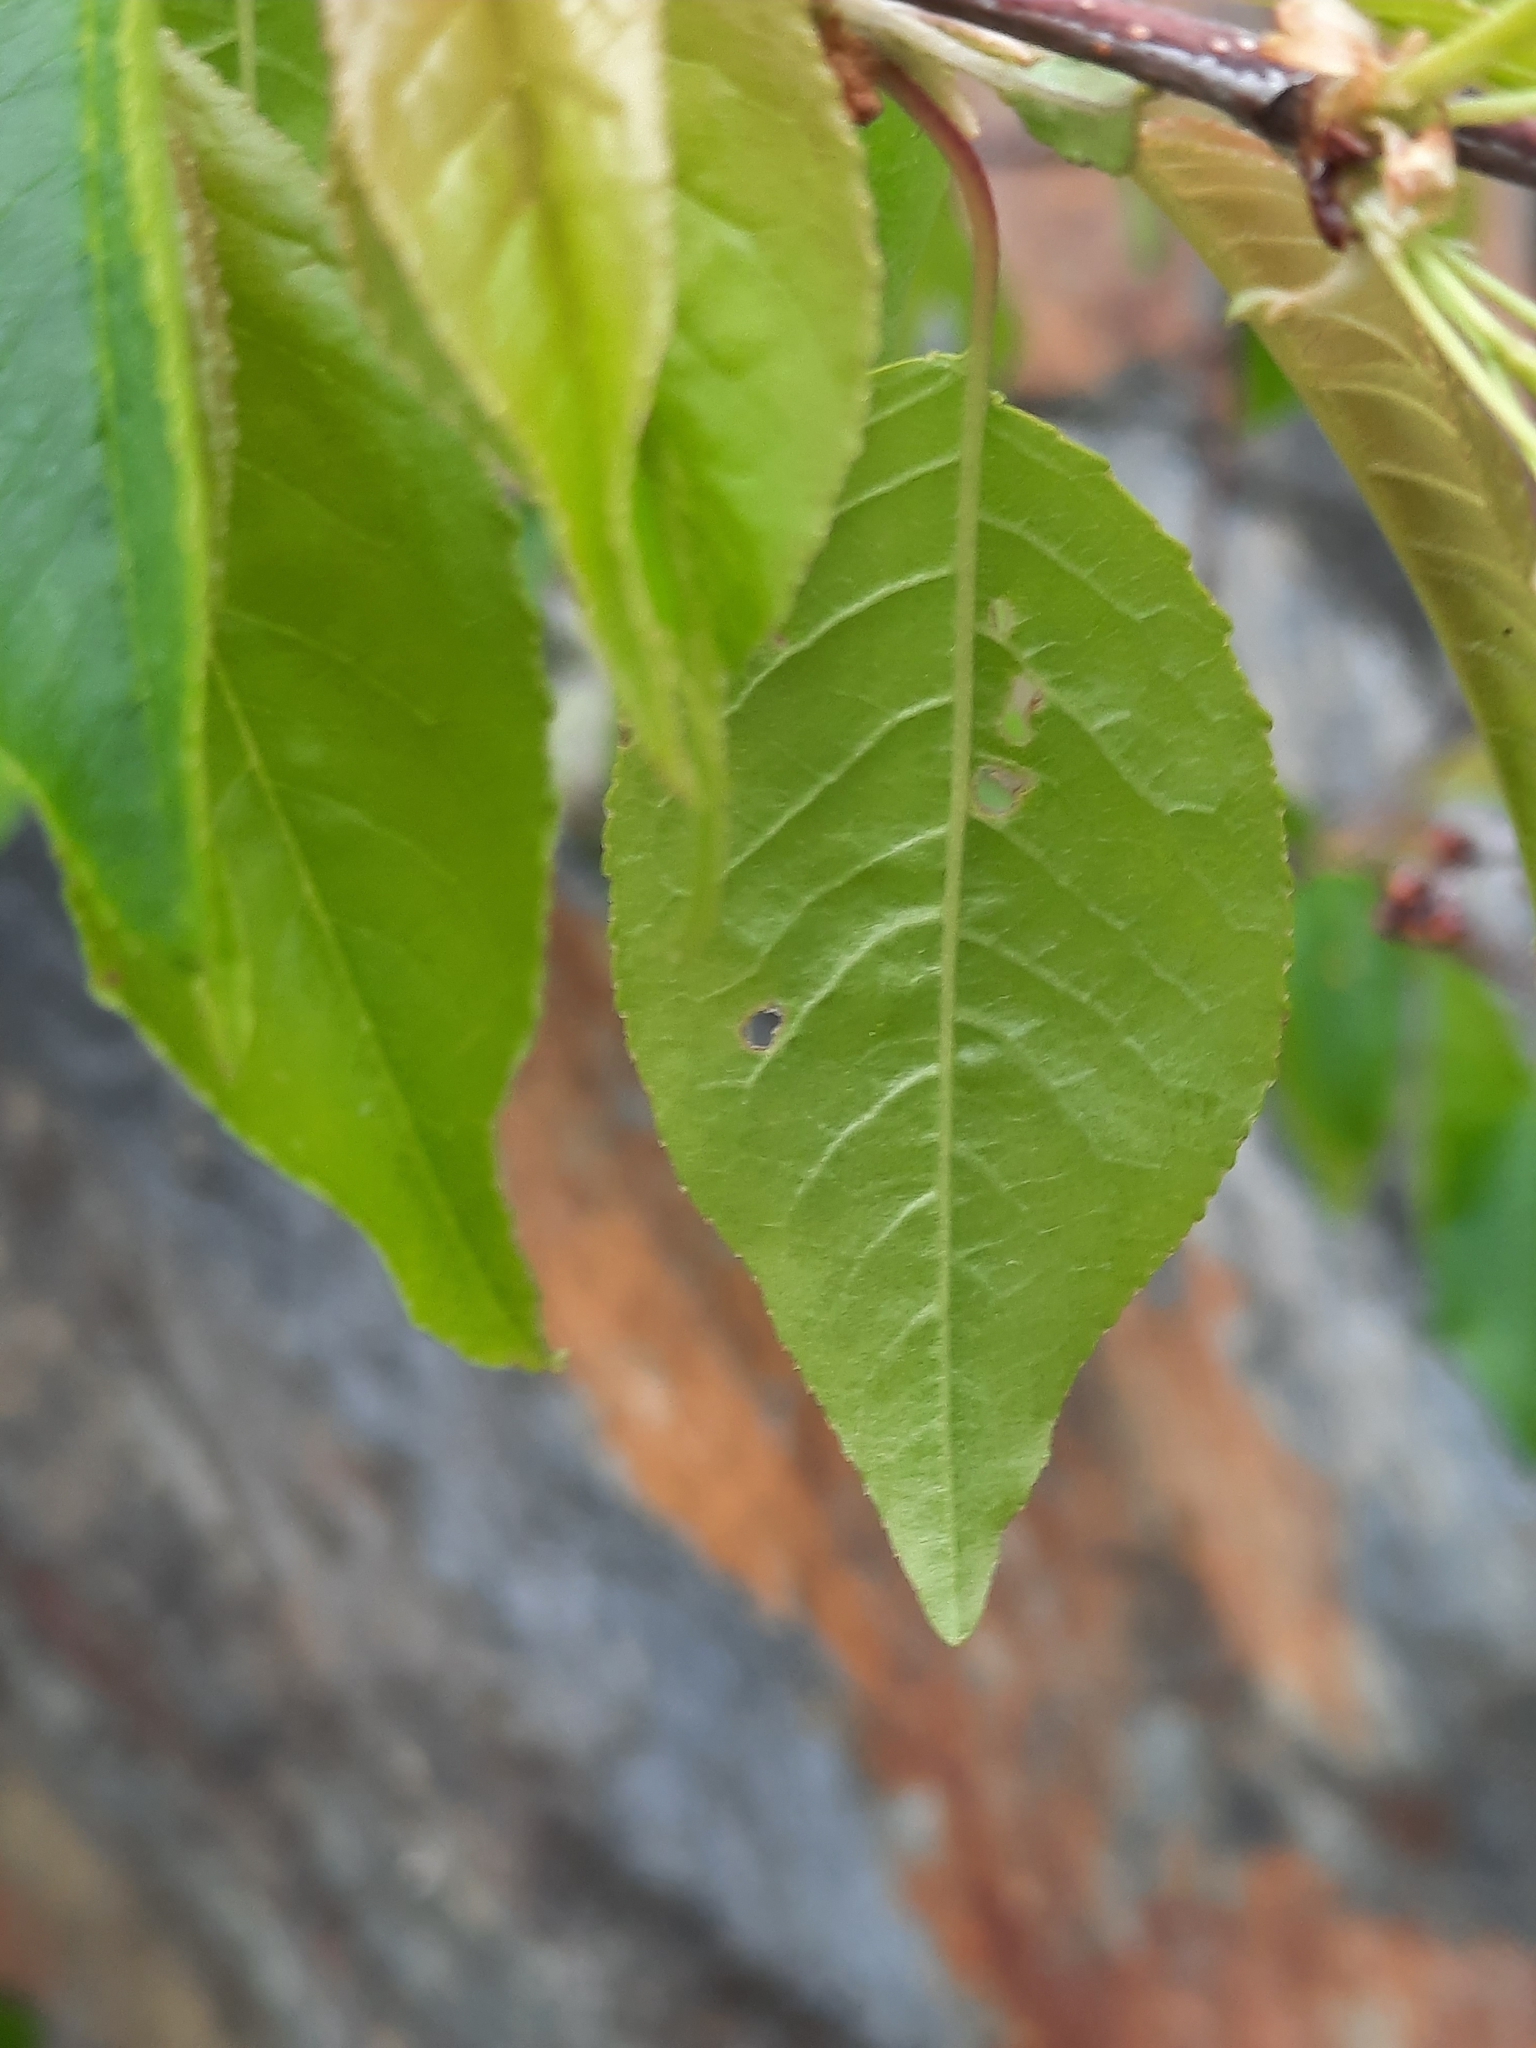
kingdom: Plantae
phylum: Tracheophyta
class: Magnoliopsida
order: Rosales
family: Rosaceae
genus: Prunus
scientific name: Prunus pensylvanica
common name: Pin cherry
